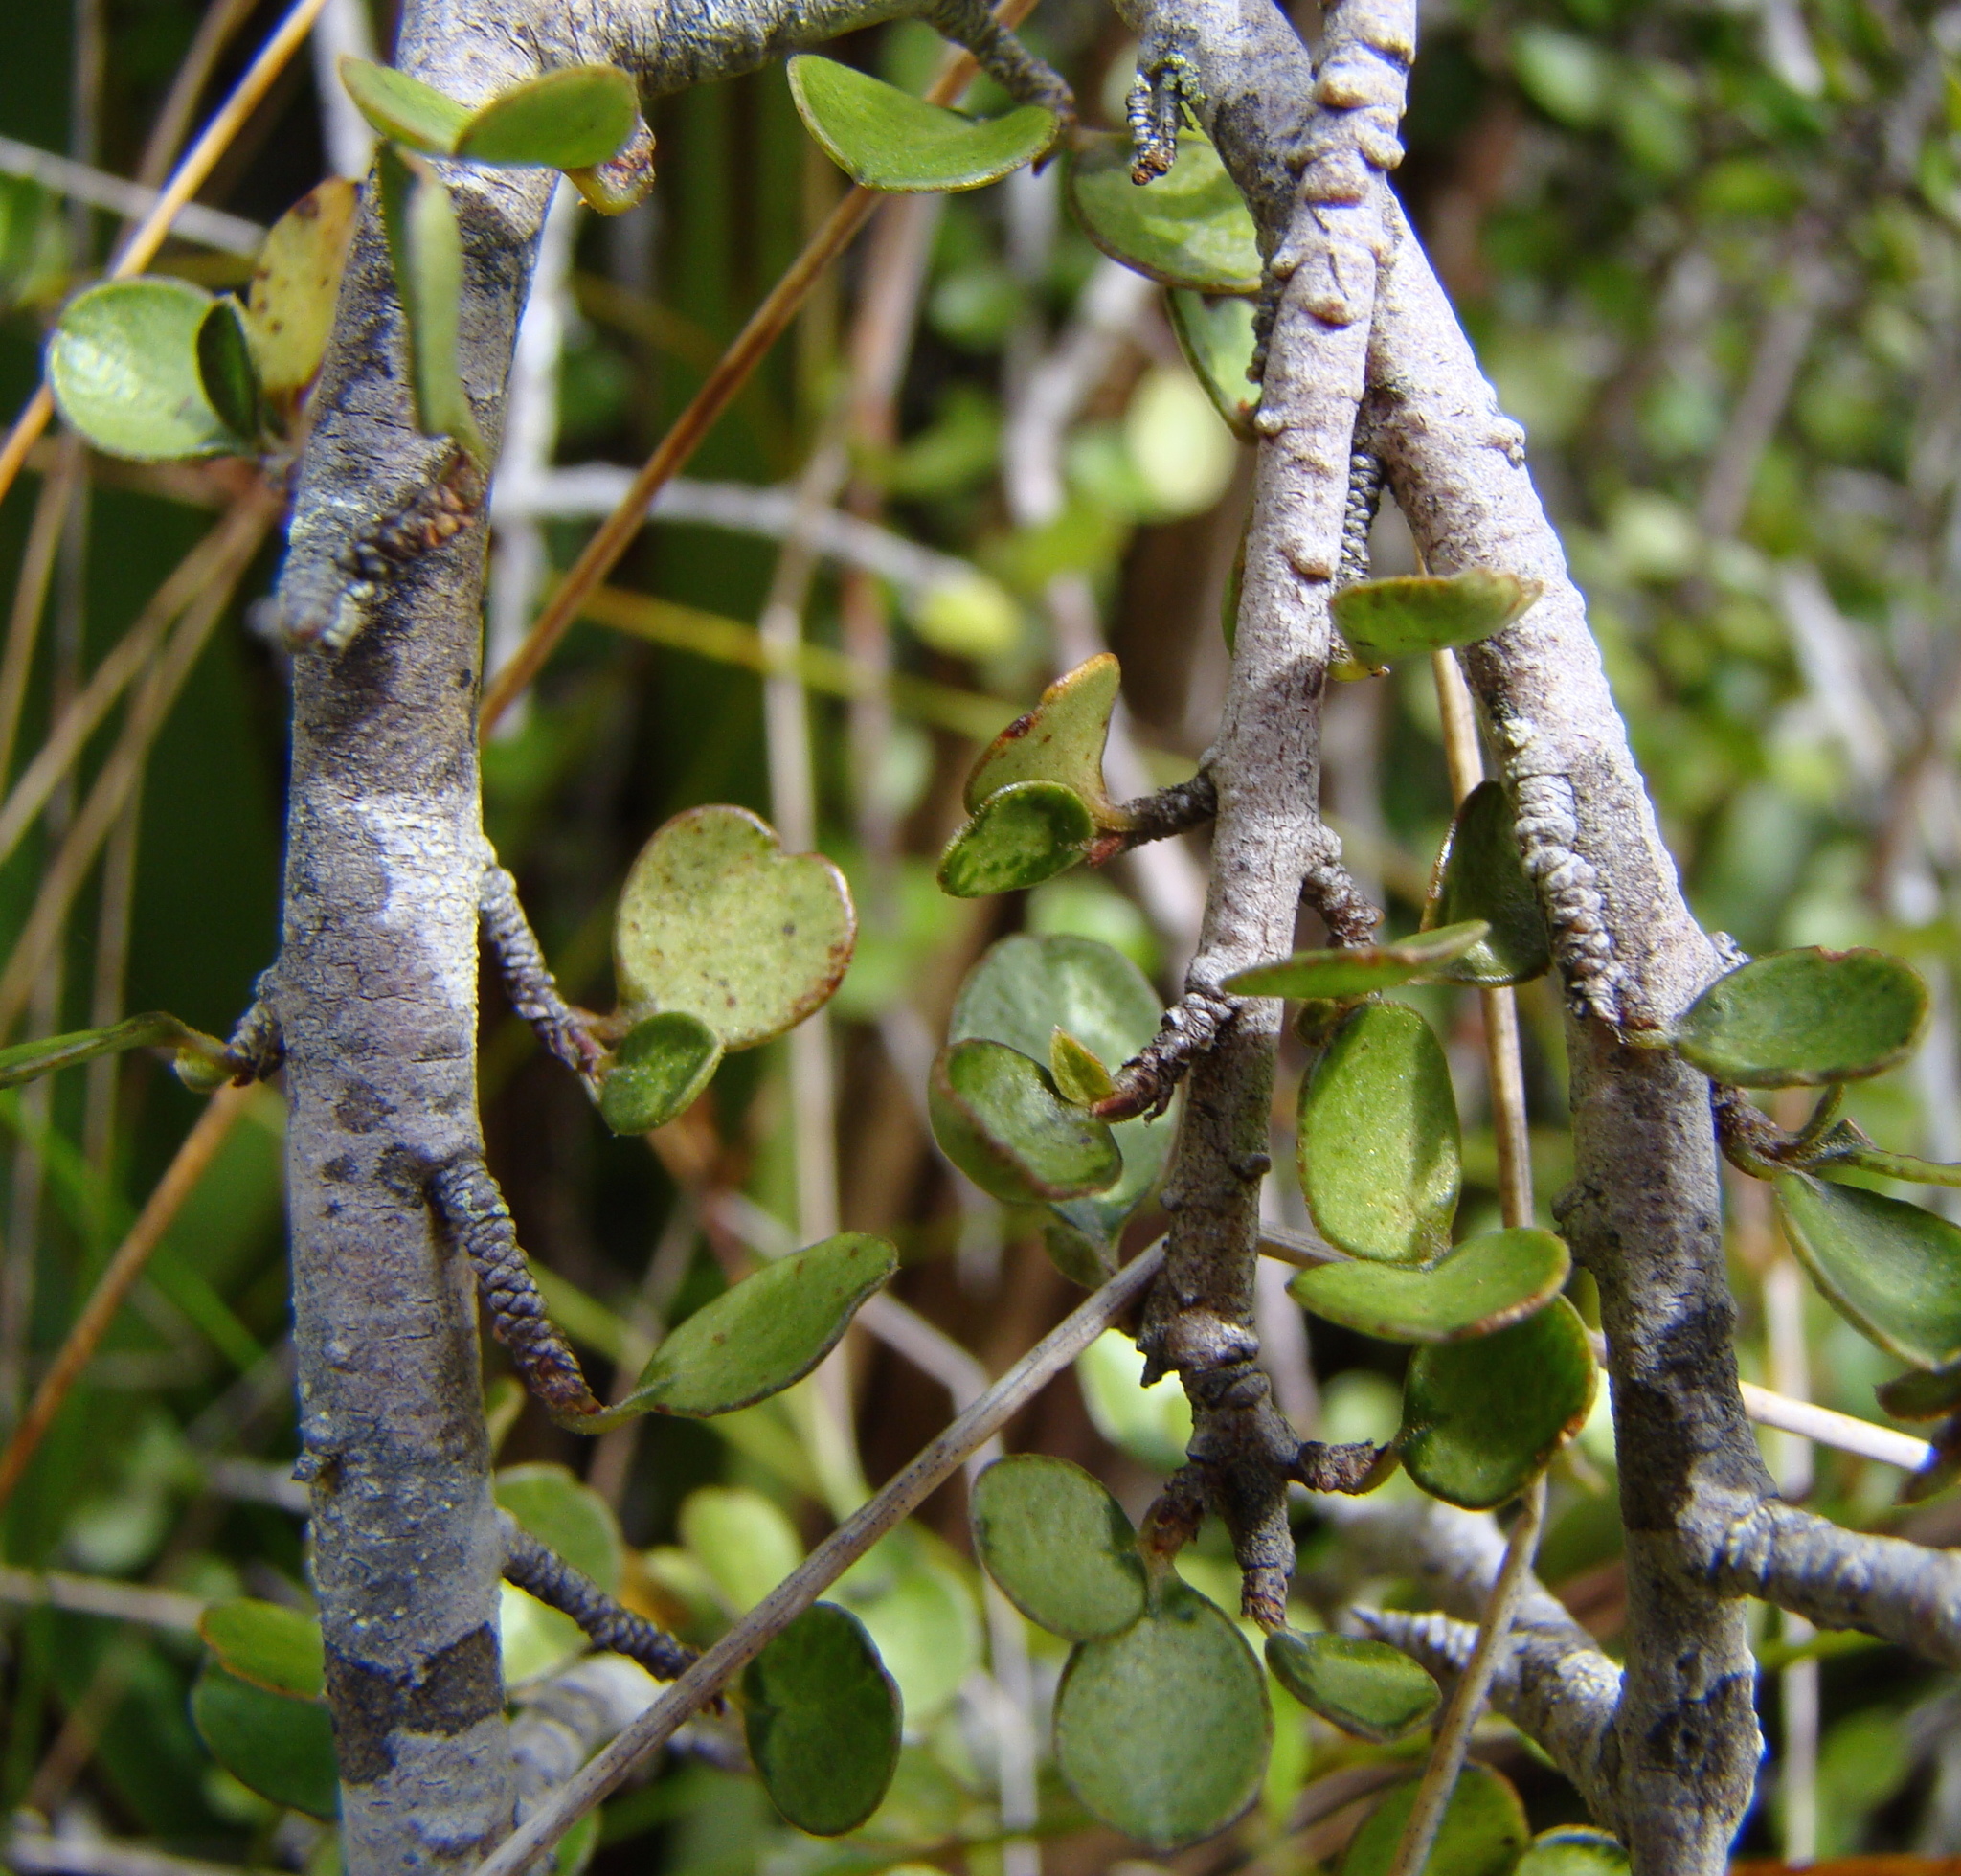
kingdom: Plantae
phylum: Tracheophyta
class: Magnoliopsida
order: Ericales
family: Primulaceae
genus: Myrsine
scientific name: Myrsine divaricata
